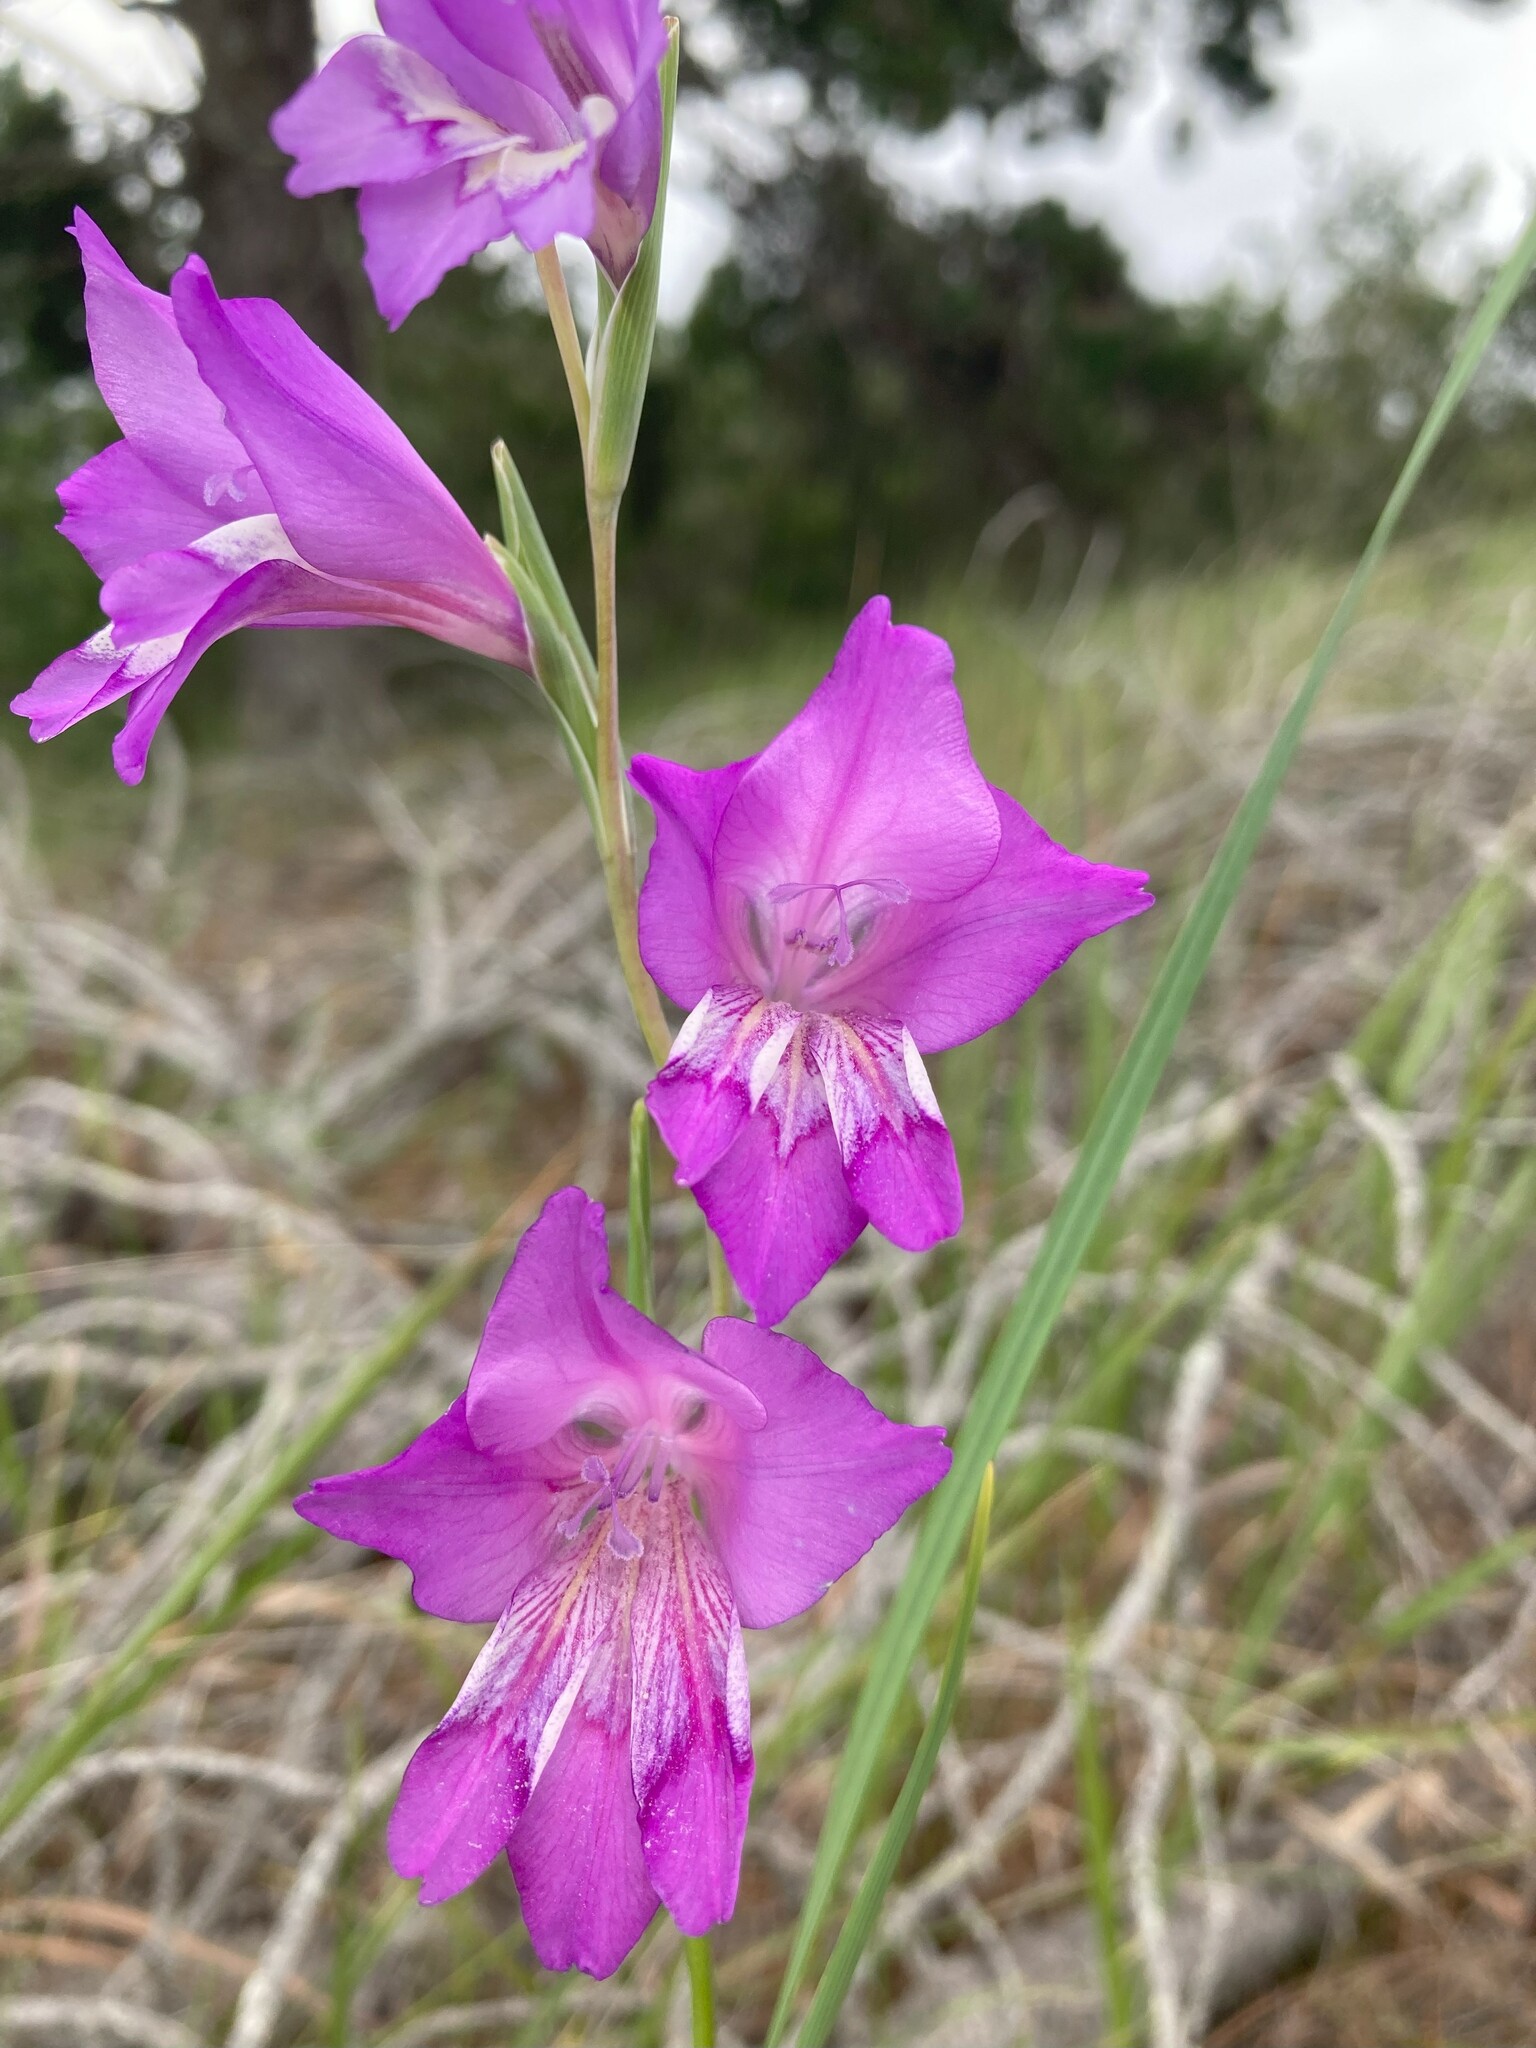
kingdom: Plantae
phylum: Tracheophyta
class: Liliopsida
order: Asparagales
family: Iridaceae
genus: Gladiolus
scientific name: Gladiolus carinatus
